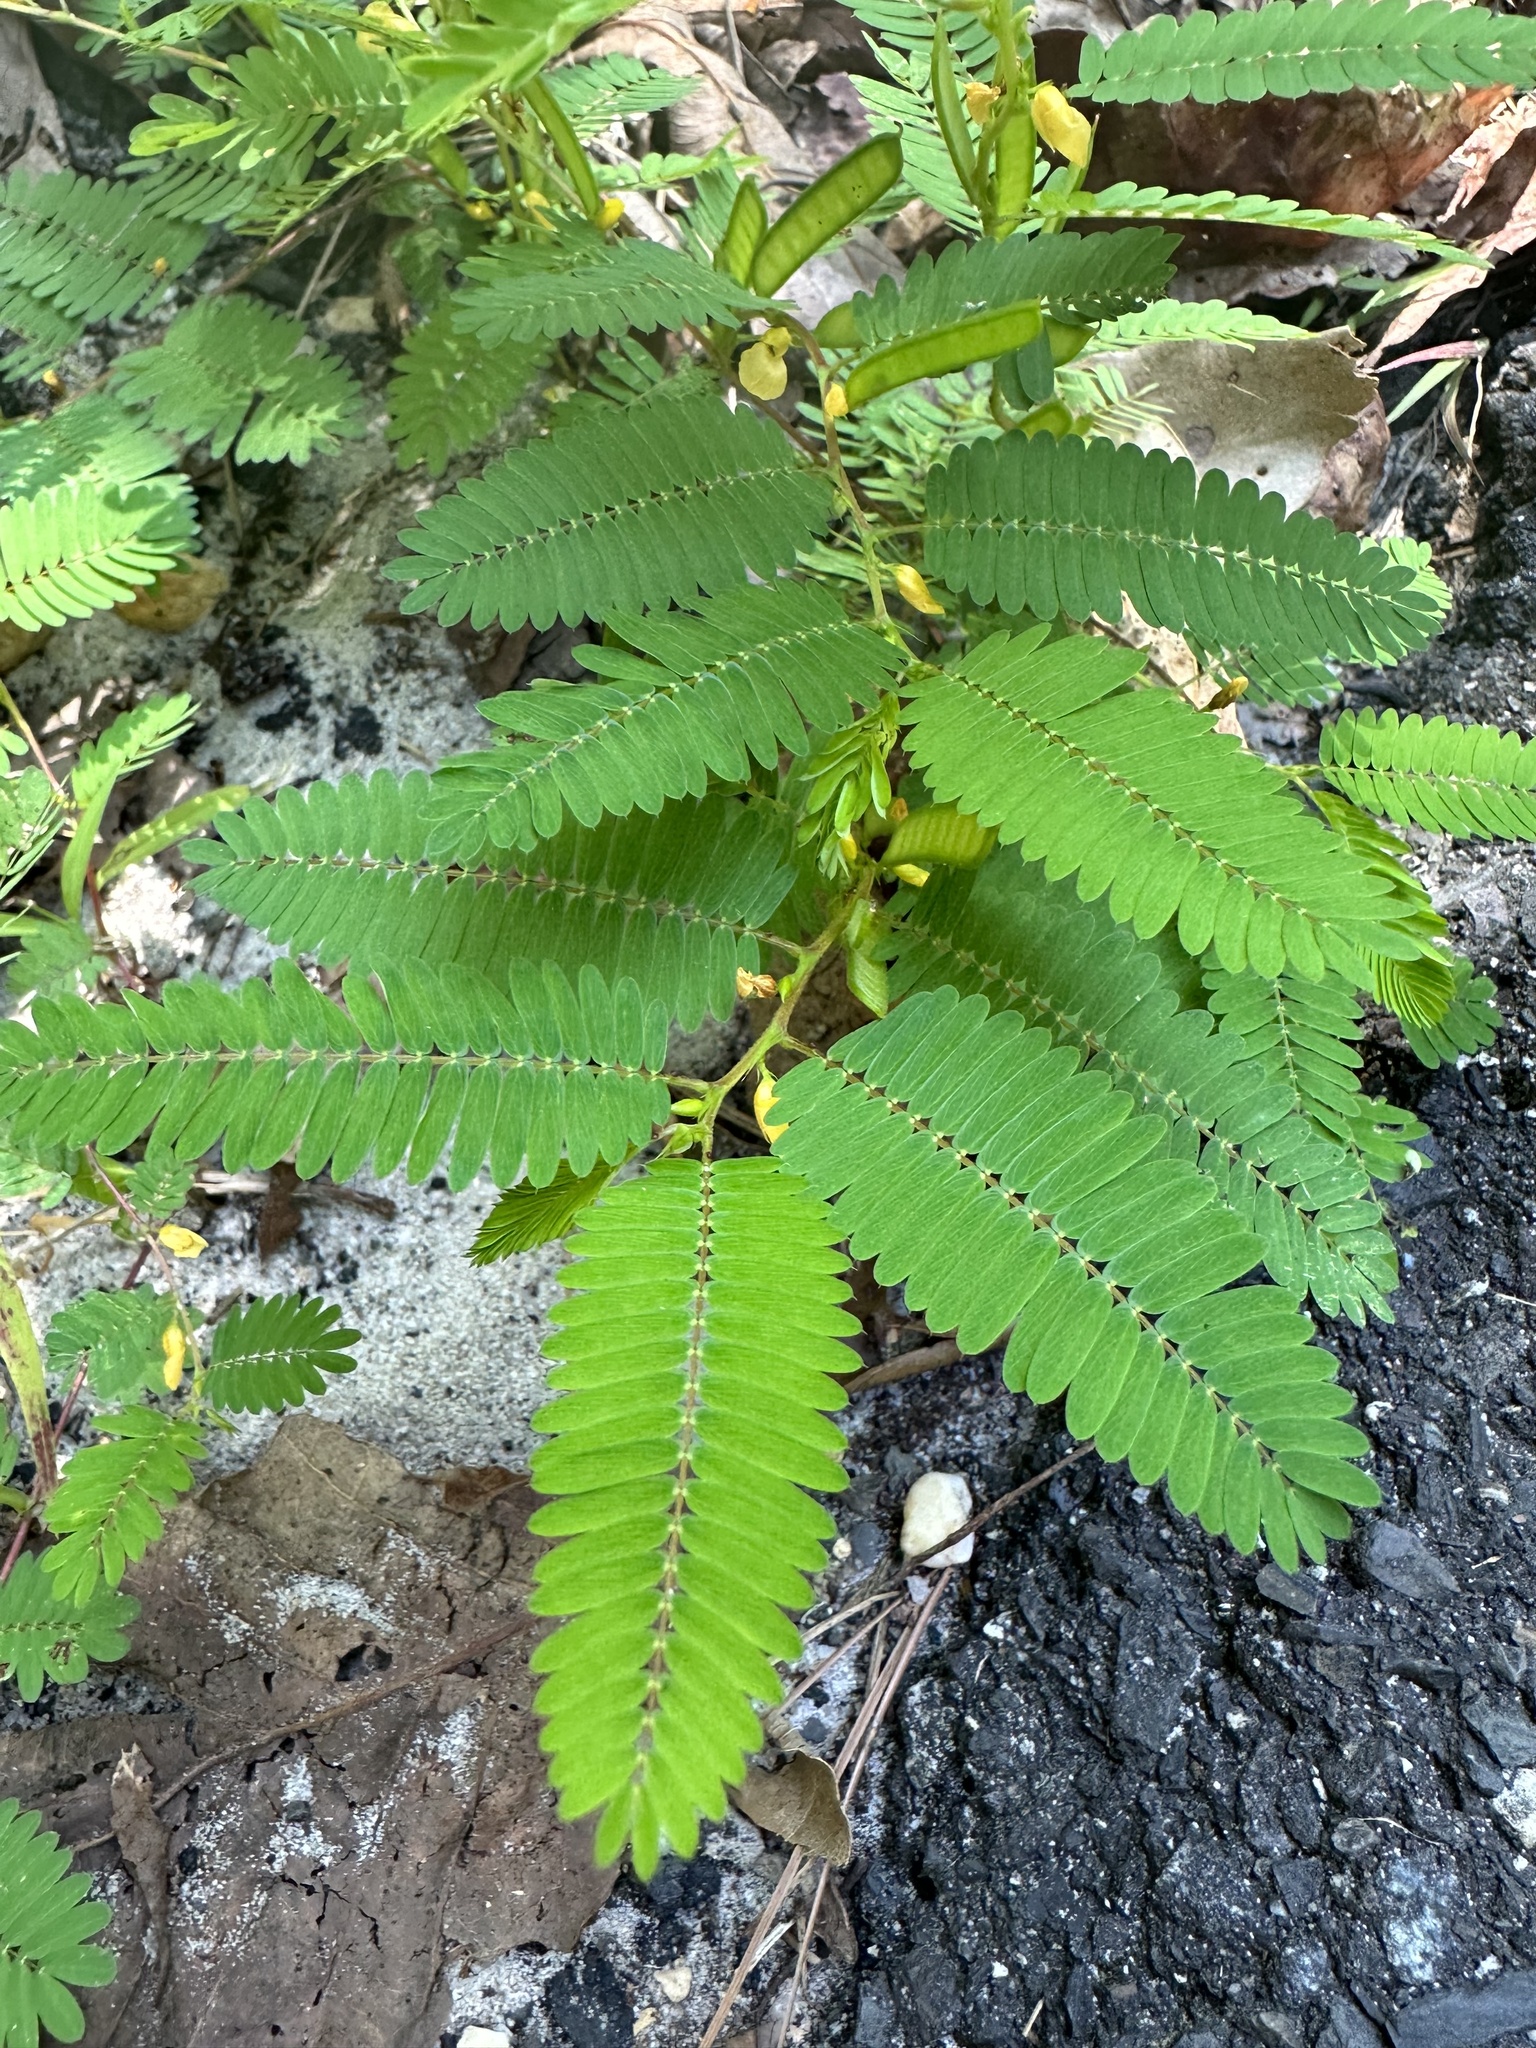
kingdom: Plantae
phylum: Tracheophyta
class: Magnoliopsida
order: Fabales
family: Fabaceae
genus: Chamaecrista
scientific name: Chamaecrista nictitans
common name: Sensitive cassia
